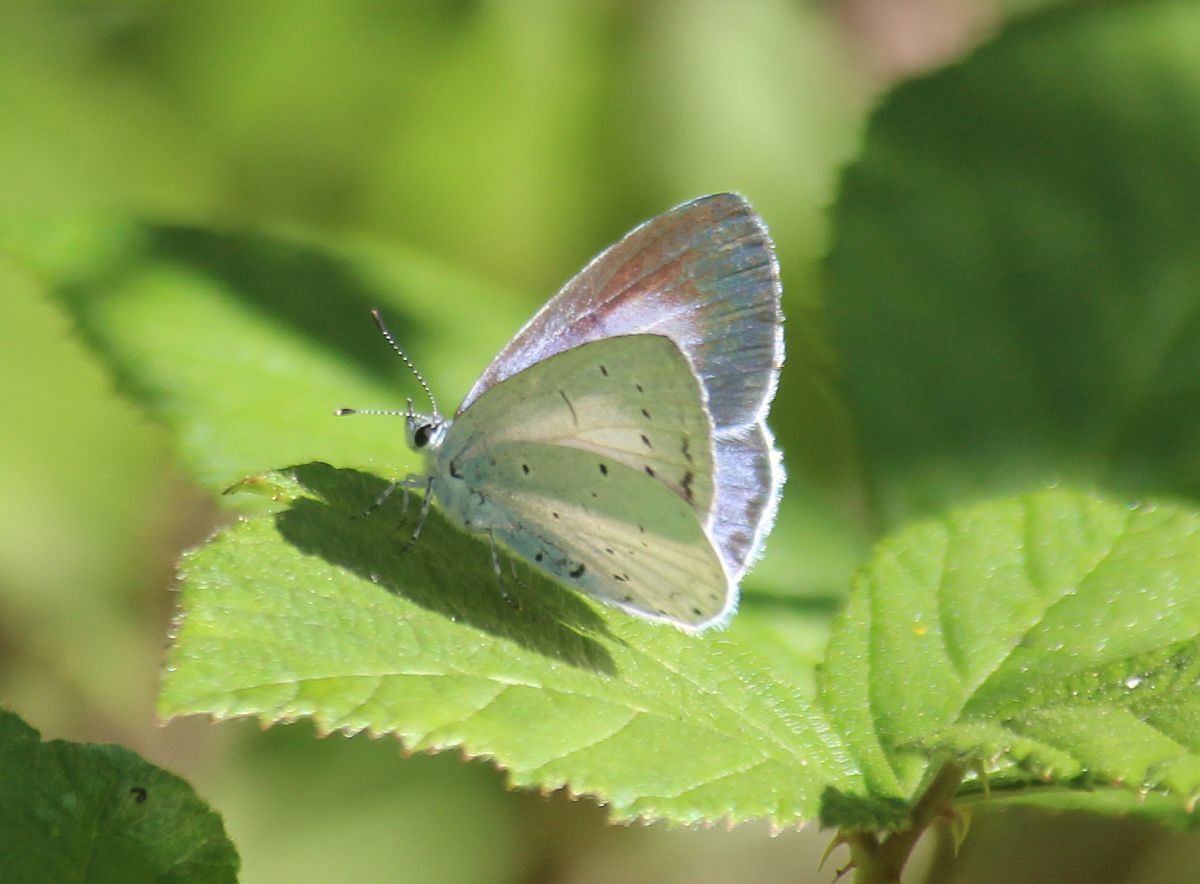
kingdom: Animalia
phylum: Arthropoda
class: Insecta
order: Lepidoptera
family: Lycaenidae
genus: Celastrina
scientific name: Celastrina argiolus
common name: Holly blue
